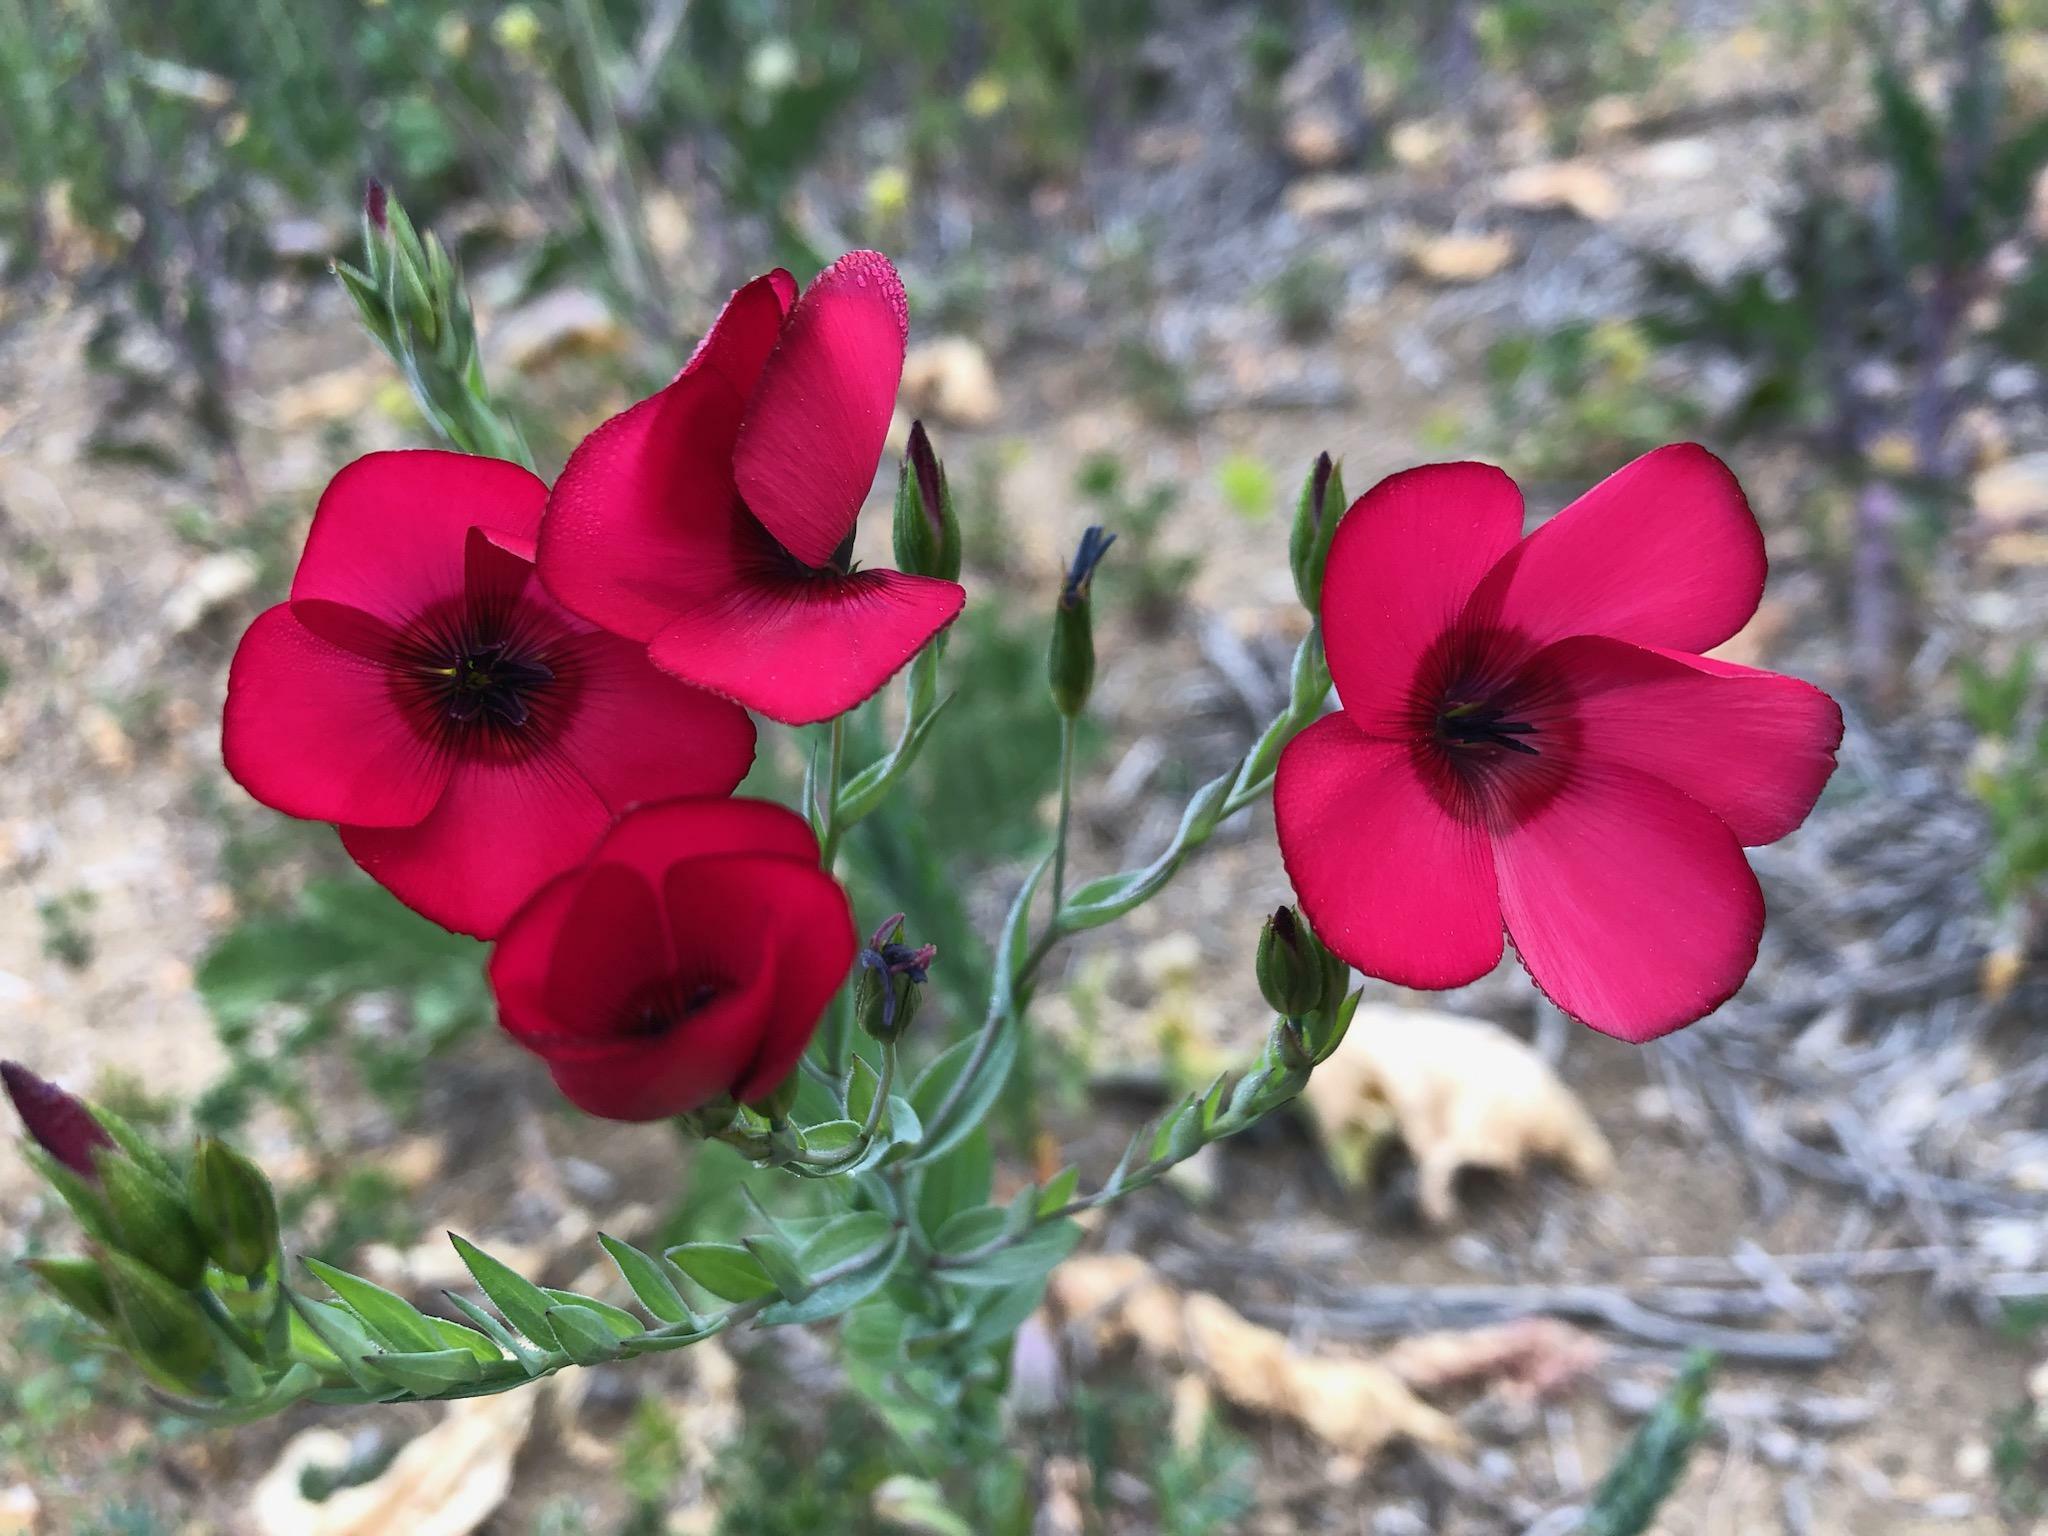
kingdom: Plantae
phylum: Tracheophyta
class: Magnoliopsida
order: Malpighiales
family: Linaceae
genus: Linum
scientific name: Linum grandiflorum
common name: Crimson flax
